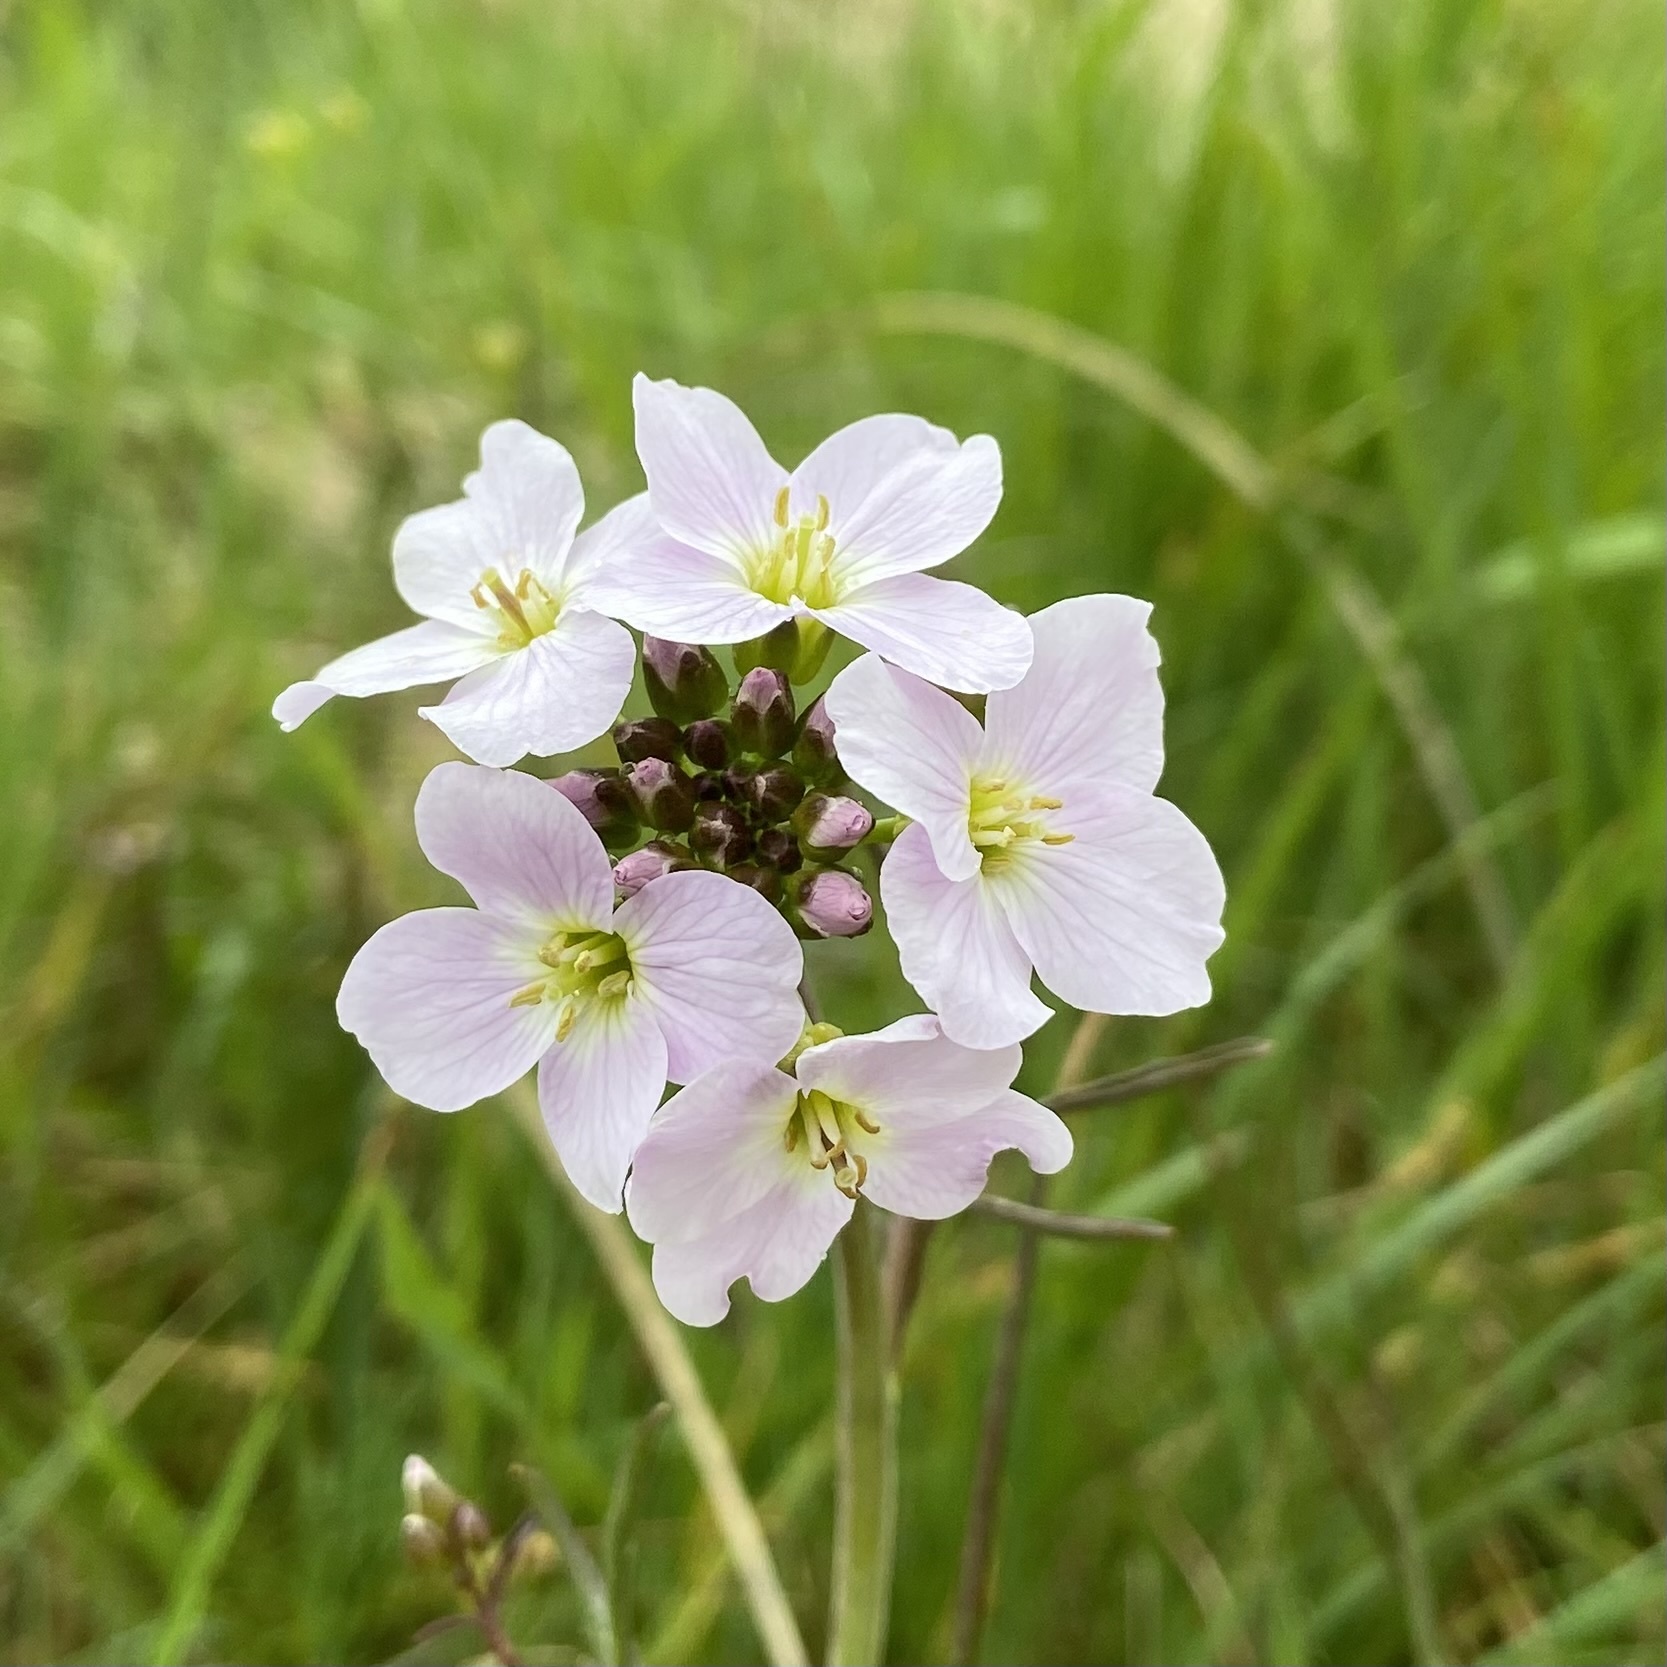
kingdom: Plantae
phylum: Tracheophyta
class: Magnoliopsida
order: Brassicales
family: Brassicaceae
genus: Cardamine
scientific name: Cardamine pratensis
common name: Cuckoo flower
